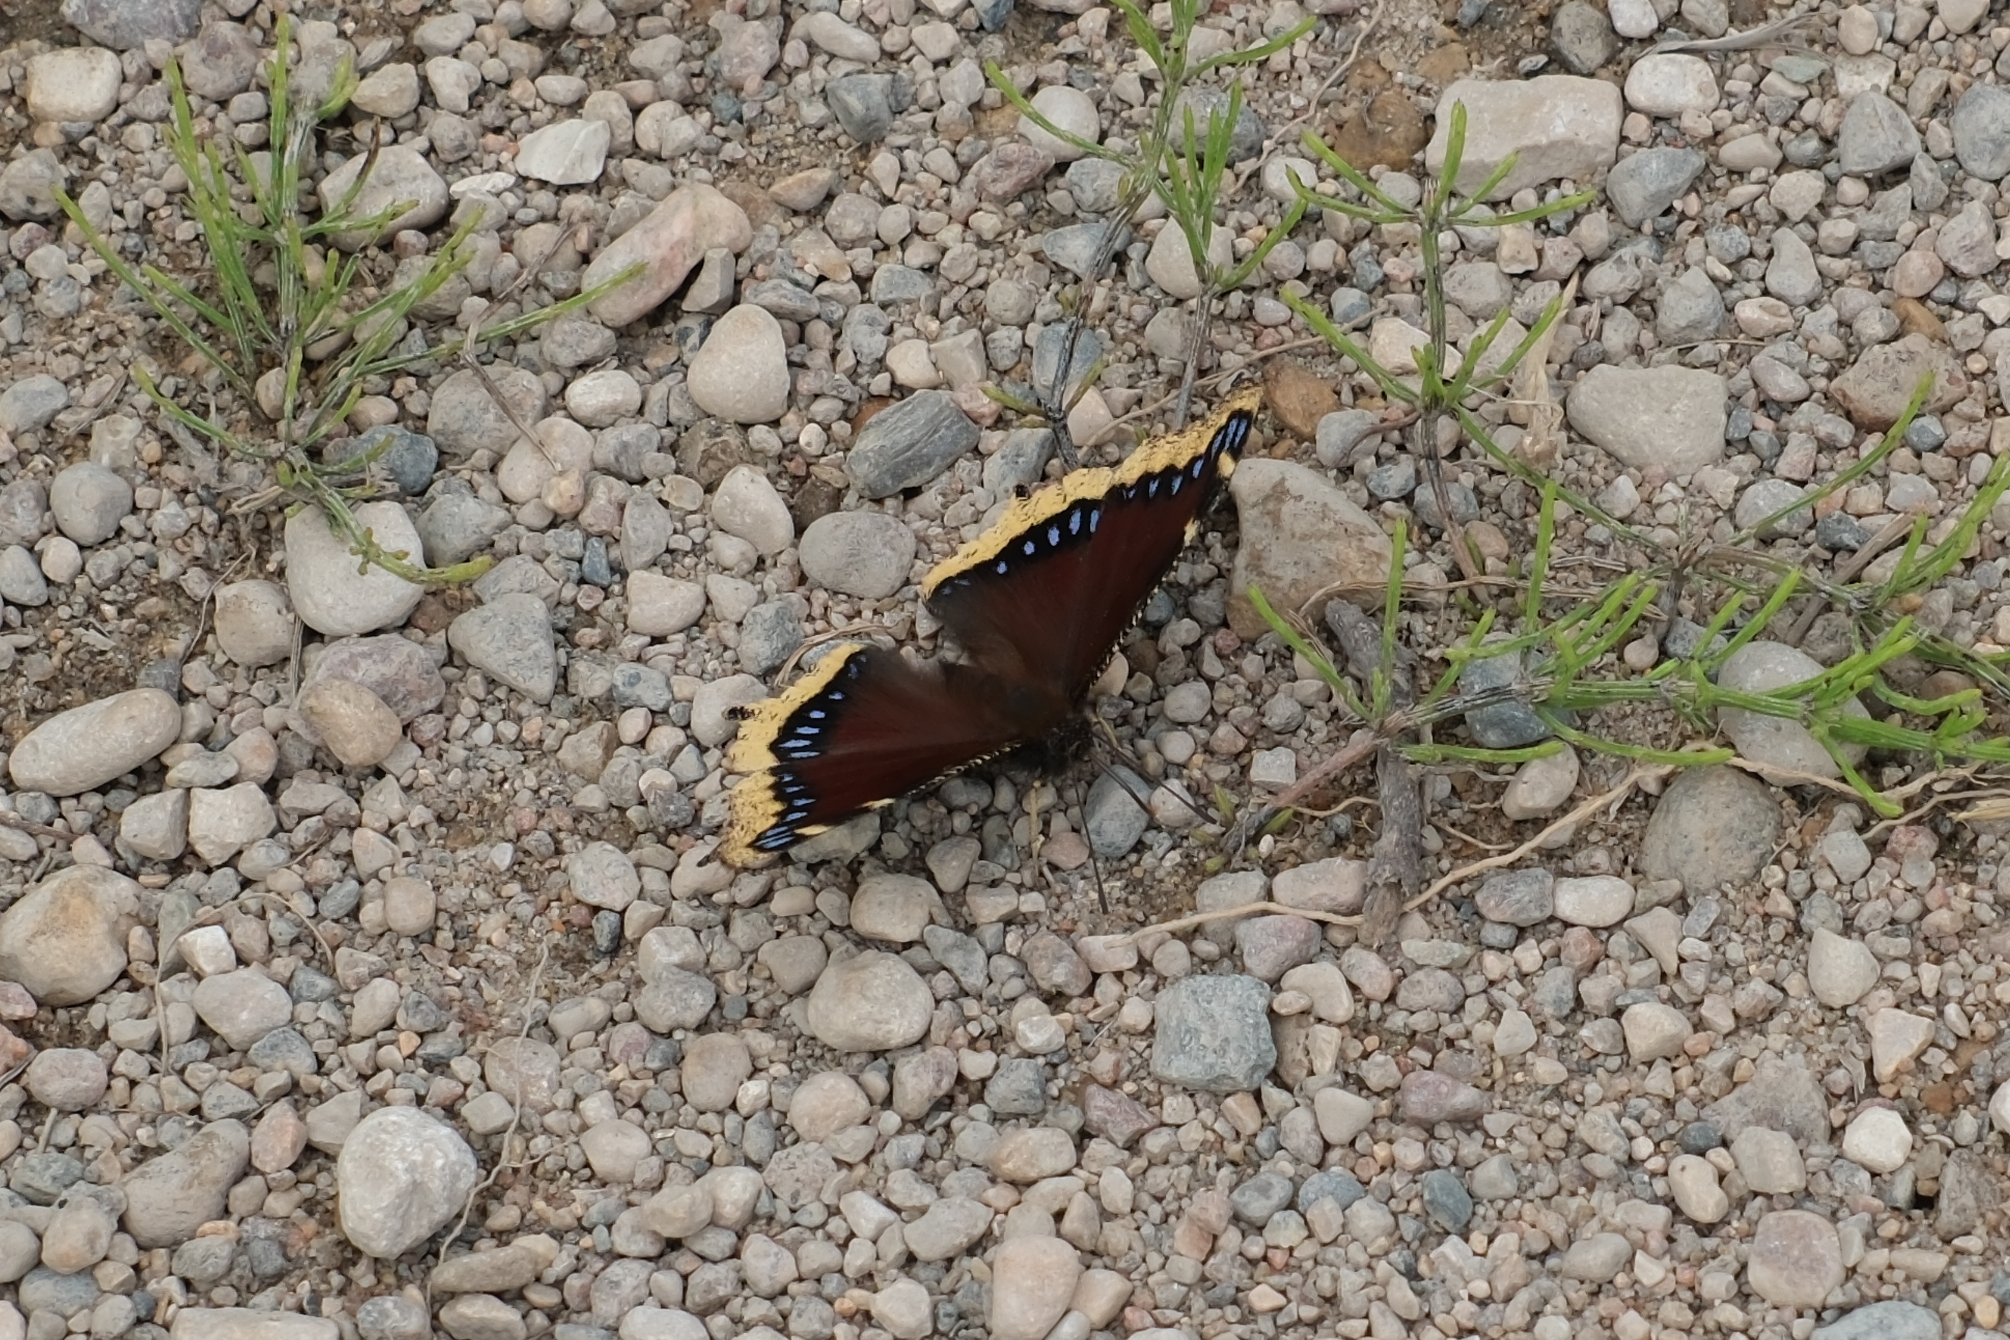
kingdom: Animalia
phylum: Arthropoda
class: Insecta
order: Lepidoptera
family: Nymphalidae
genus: Nymphalis
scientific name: Nymphalis antiopa
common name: Camberwell beauty
